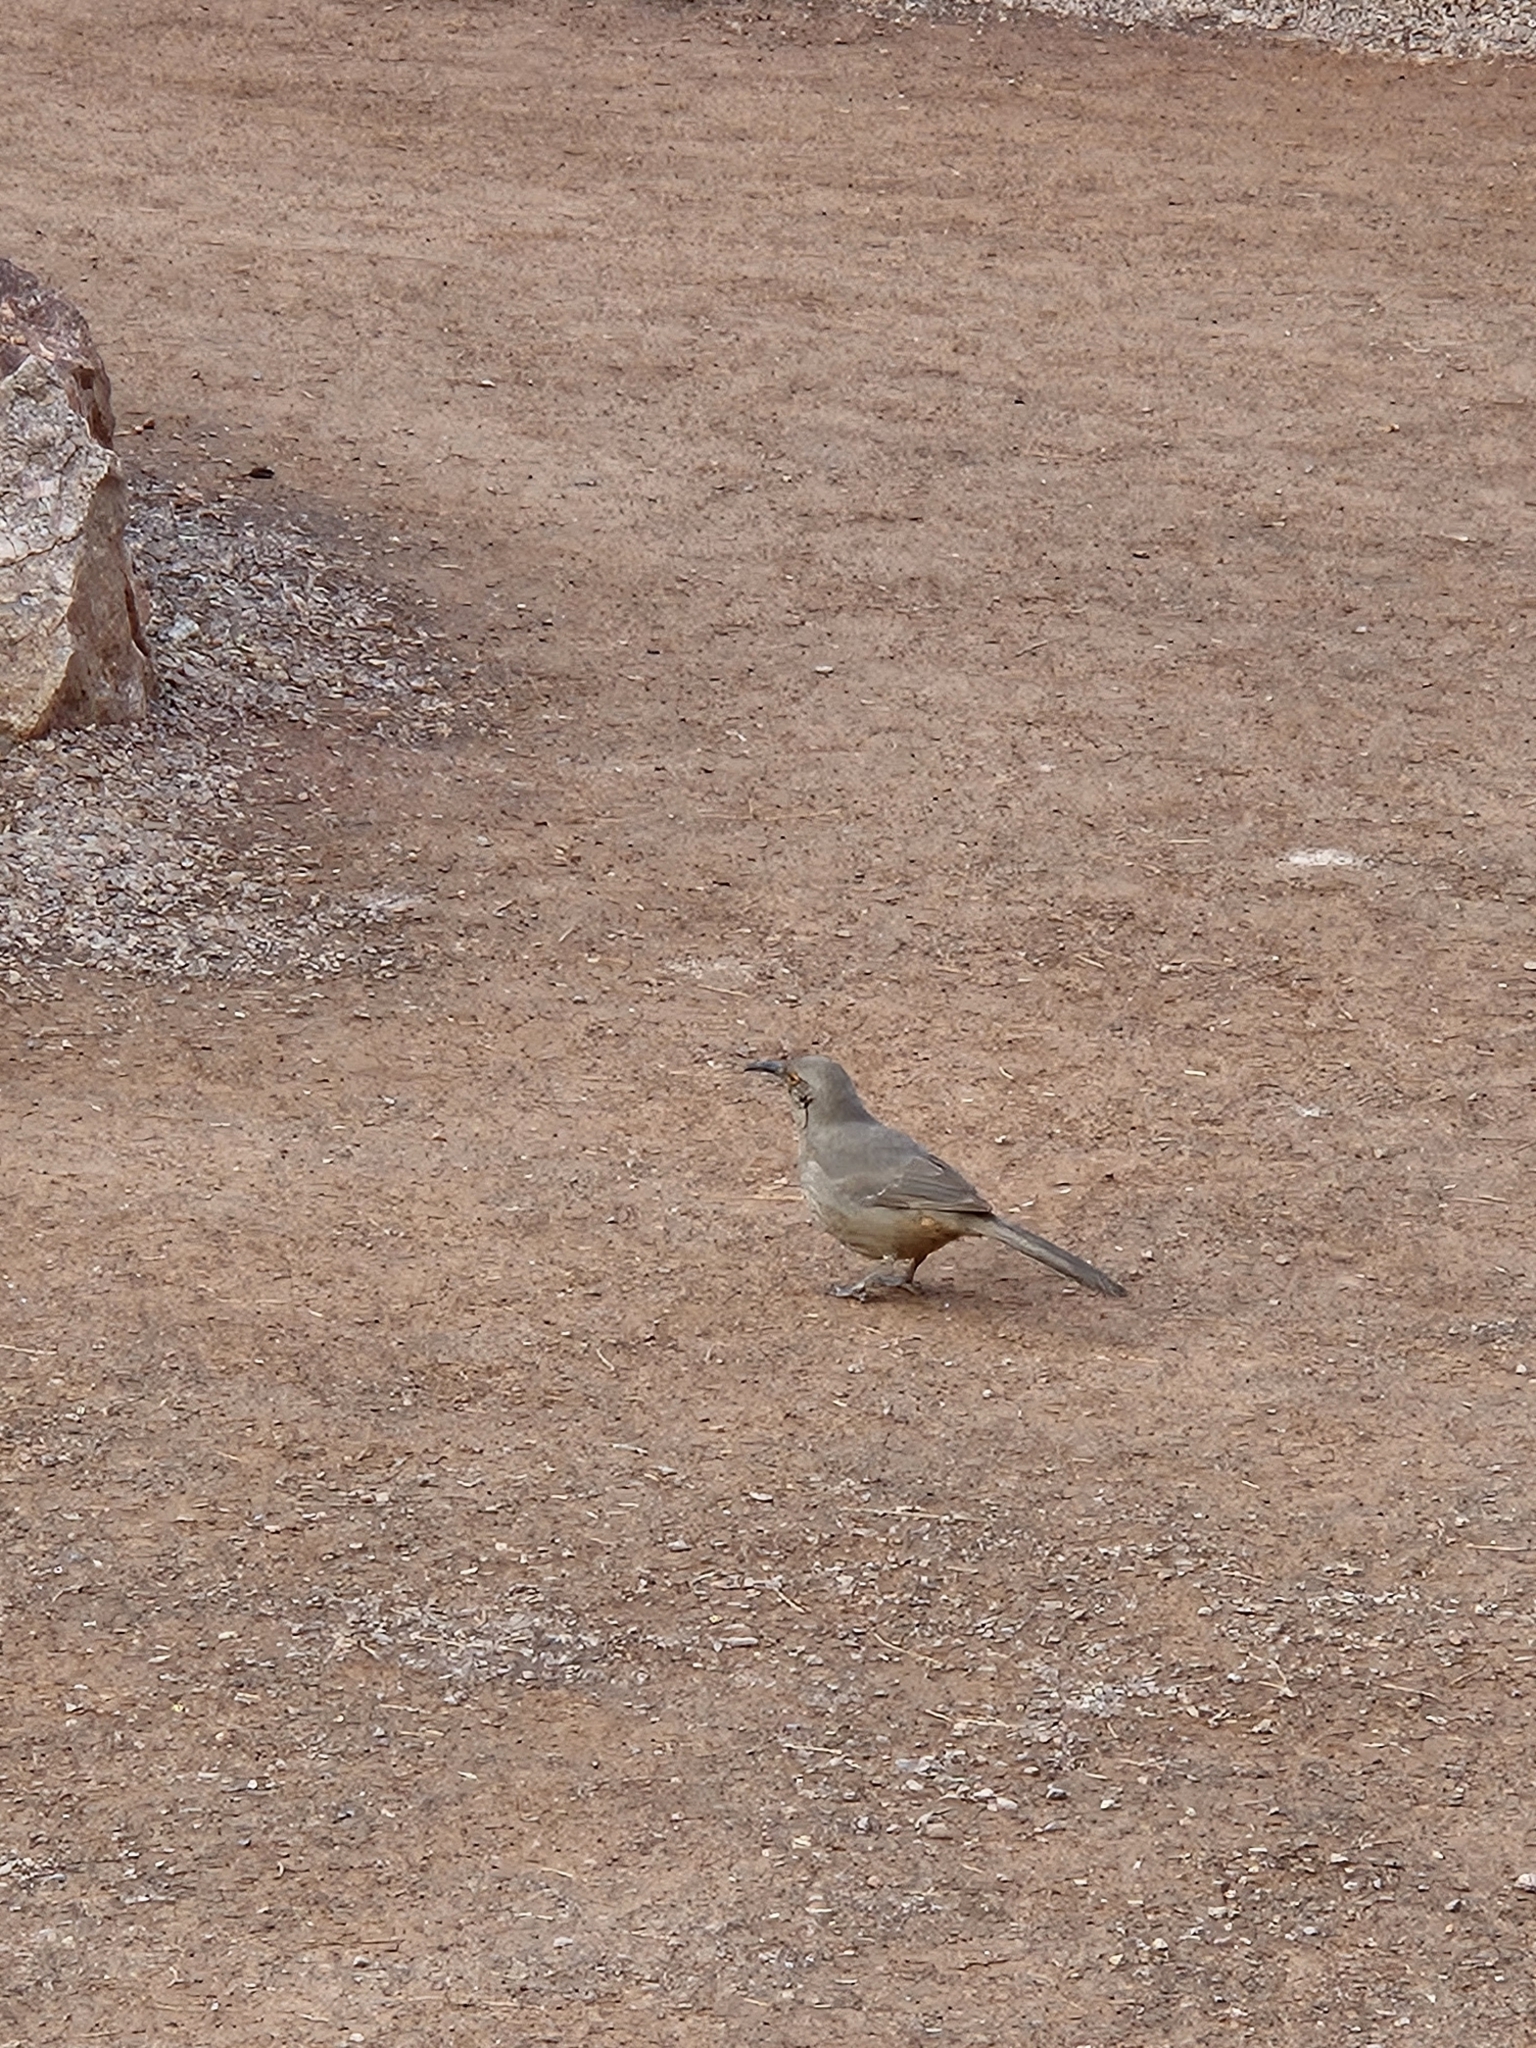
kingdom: Animalia
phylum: Chordata
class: Aves
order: Passeriformes
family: Mimidae
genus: Toxostoma
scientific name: Toxostoma curvirostre
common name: Curve-billed thrasher
